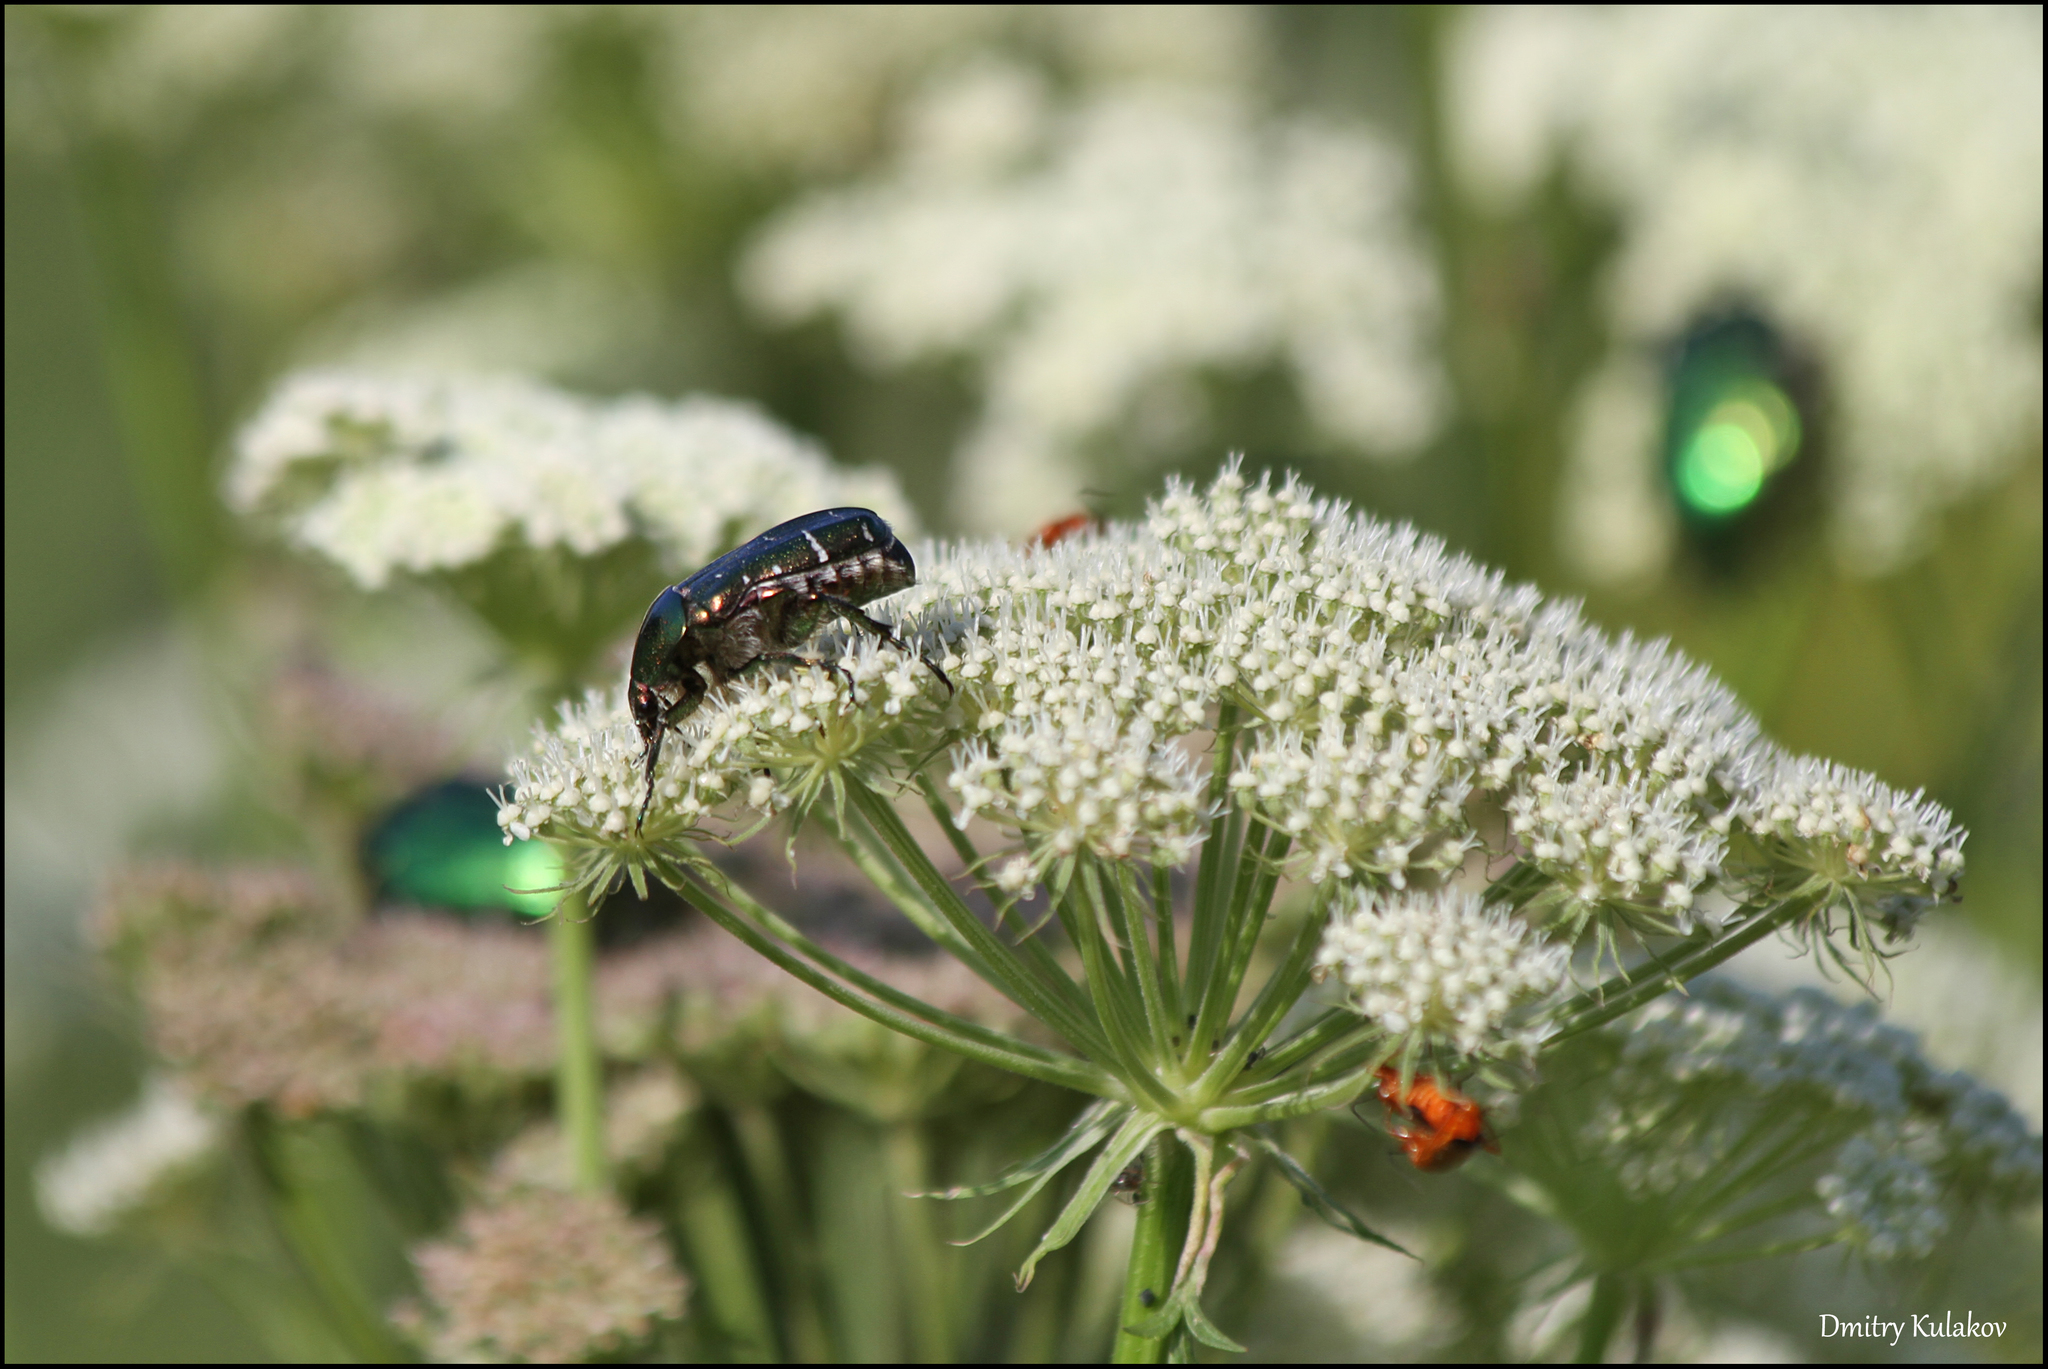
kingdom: Animalia
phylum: Arthropoda
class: Insecta
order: Coleoptera
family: Scarabaeidae
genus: Cetonia
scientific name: Cetonia aurata
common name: Rose chafer
